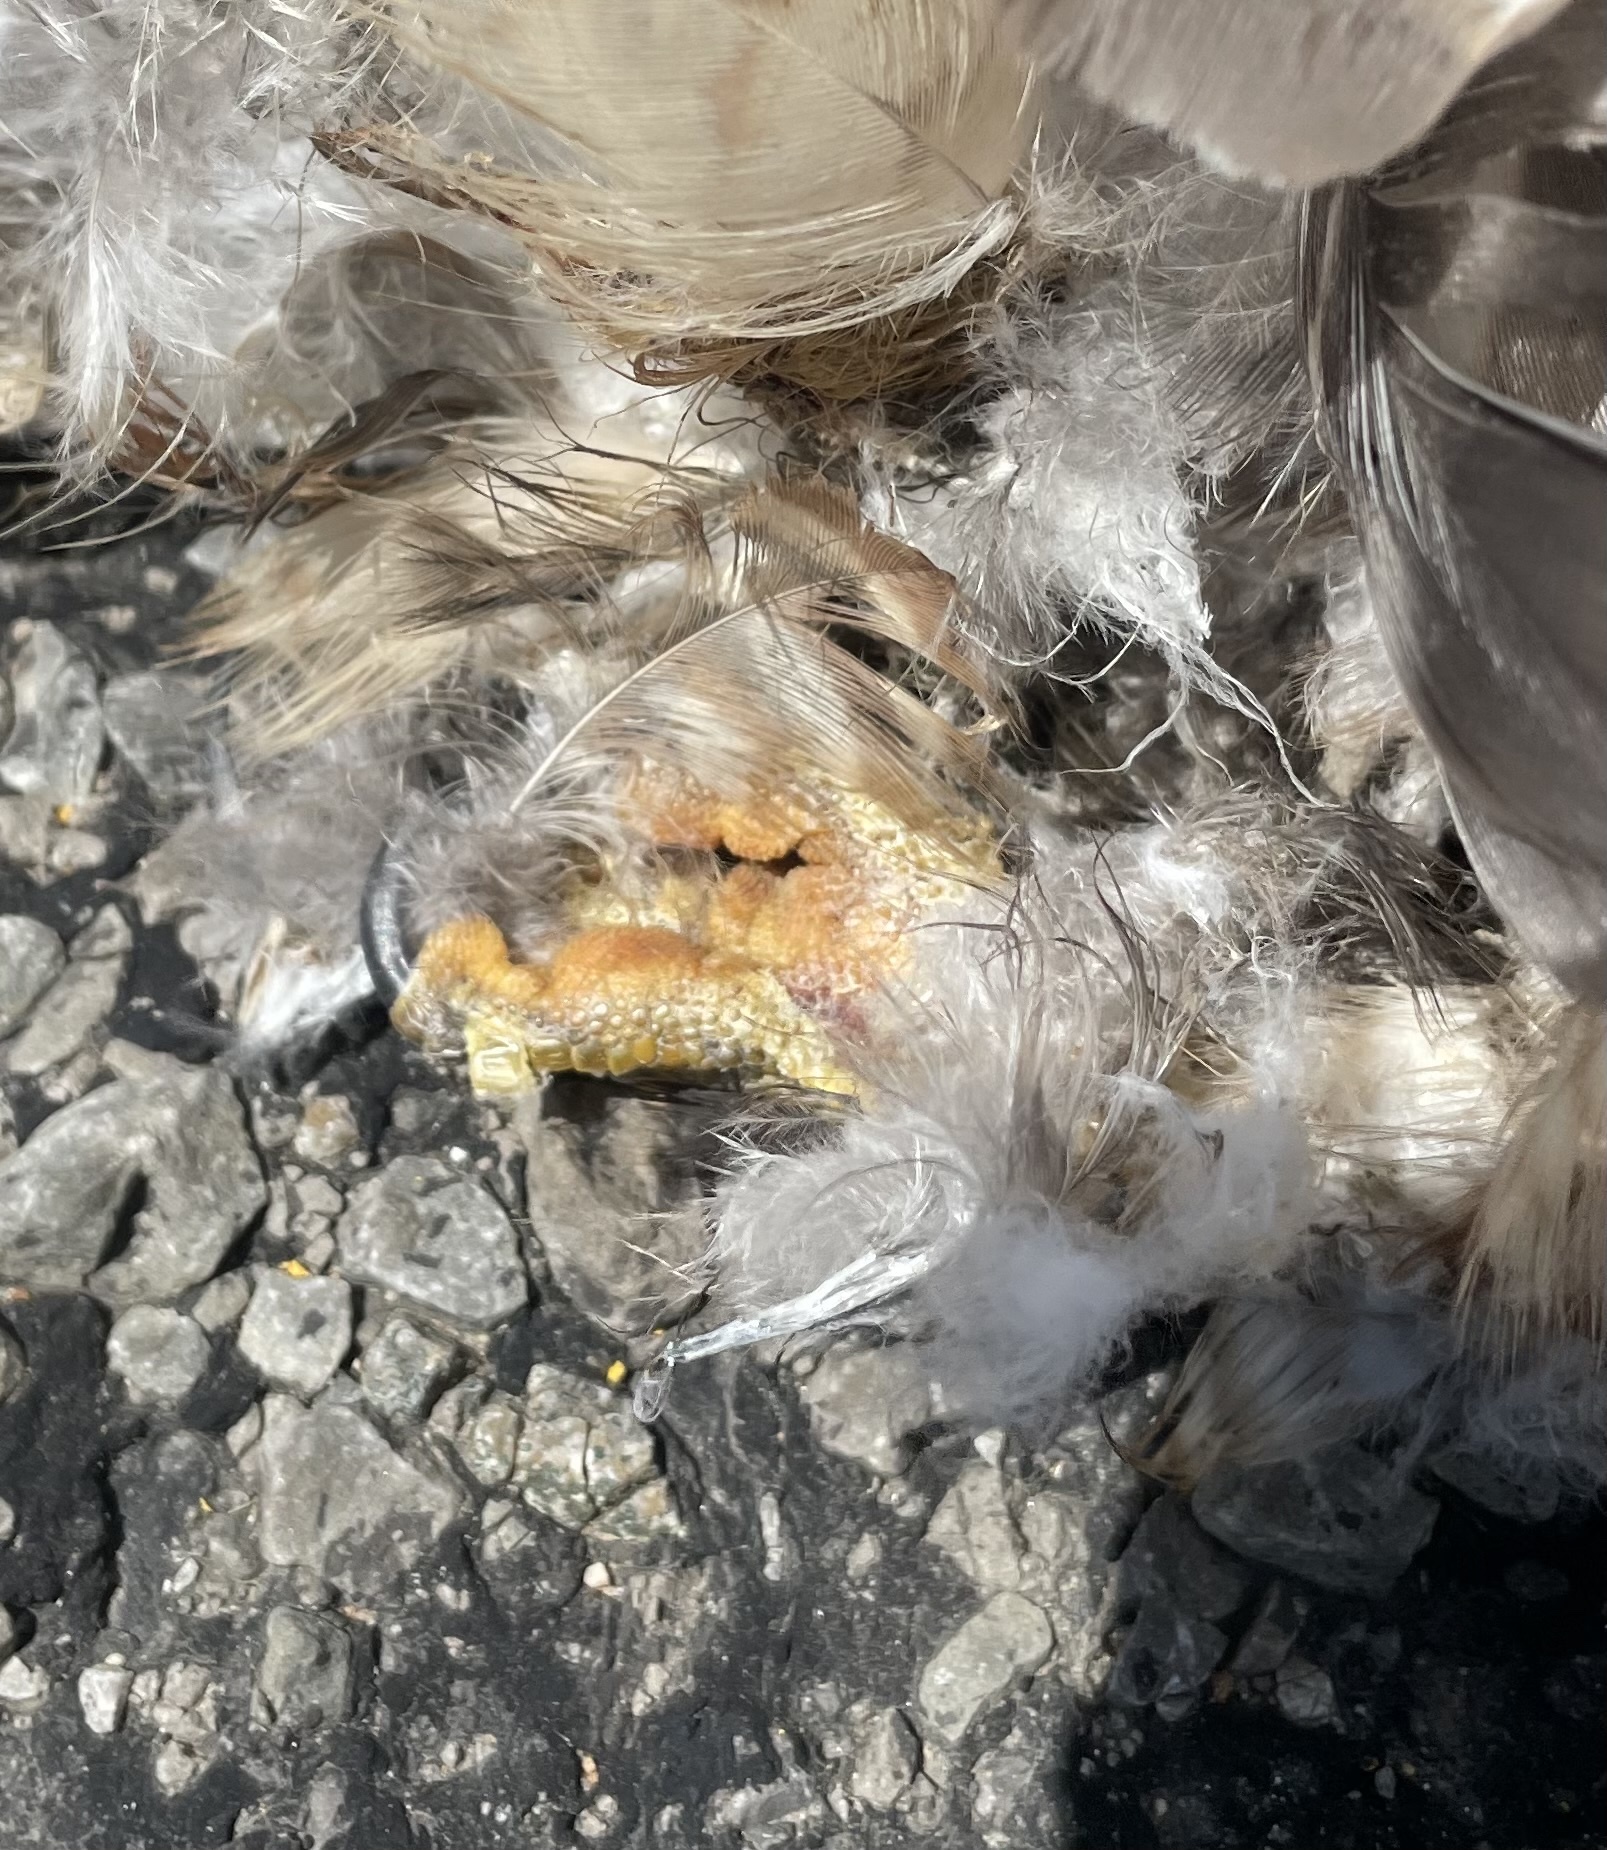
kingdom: Animalia
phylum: Chordata
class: Aves
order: Accipitriformes
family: Accipitridae
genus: Buteo
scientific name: Buteo lineatus
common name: Red-shouldered hawk
